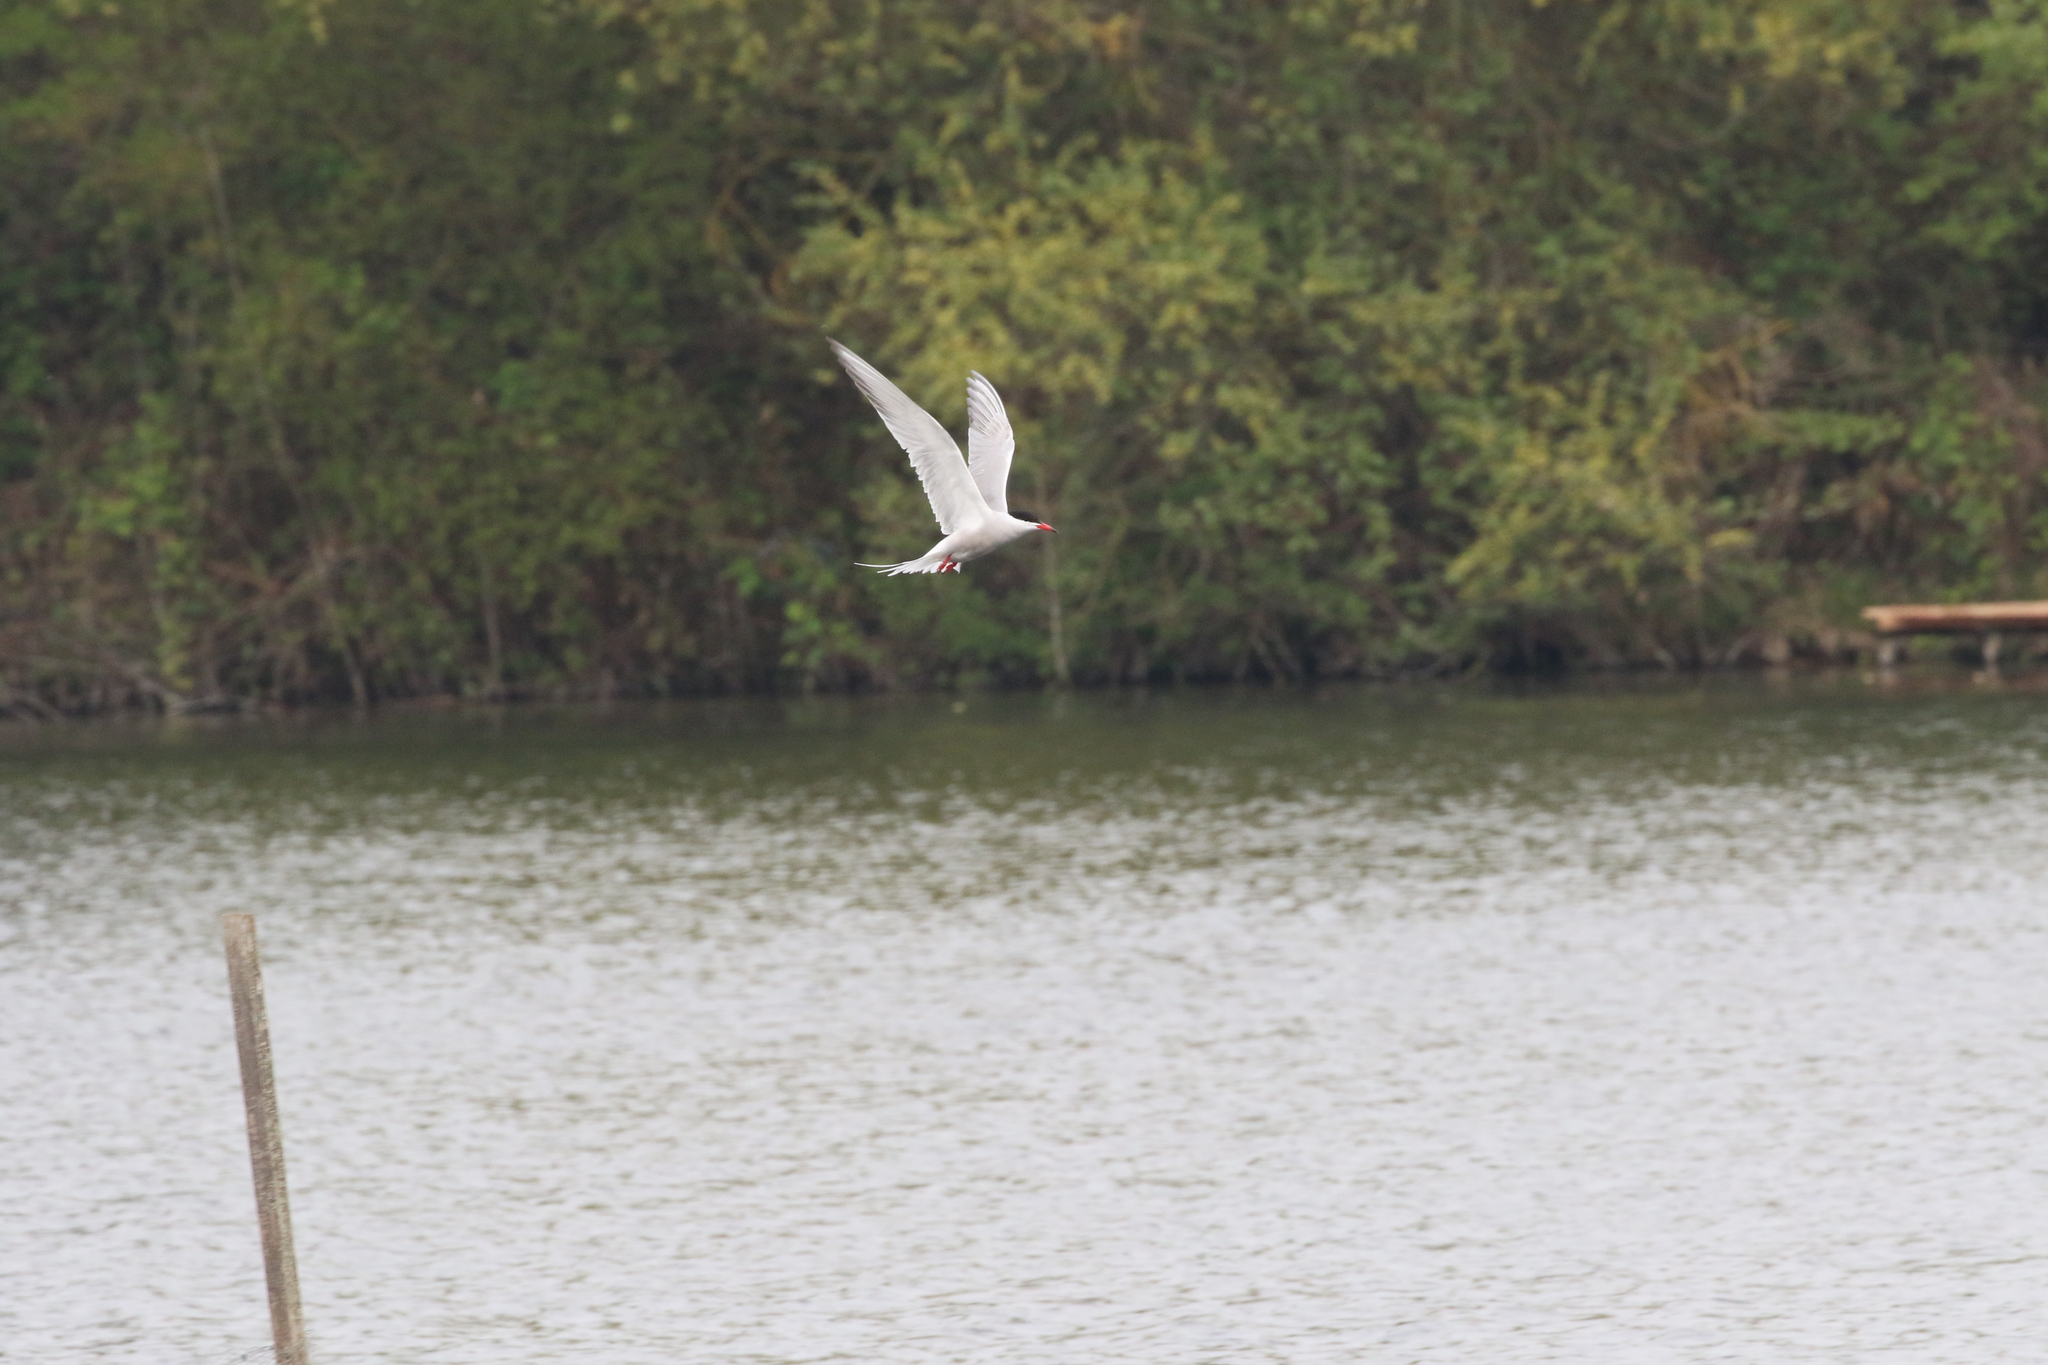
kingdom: Animalia
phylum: Chordata
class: Aves
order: Charadriiformes
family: Laridae
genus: Sterna
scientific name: Sterna hirundo
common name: Common tern
